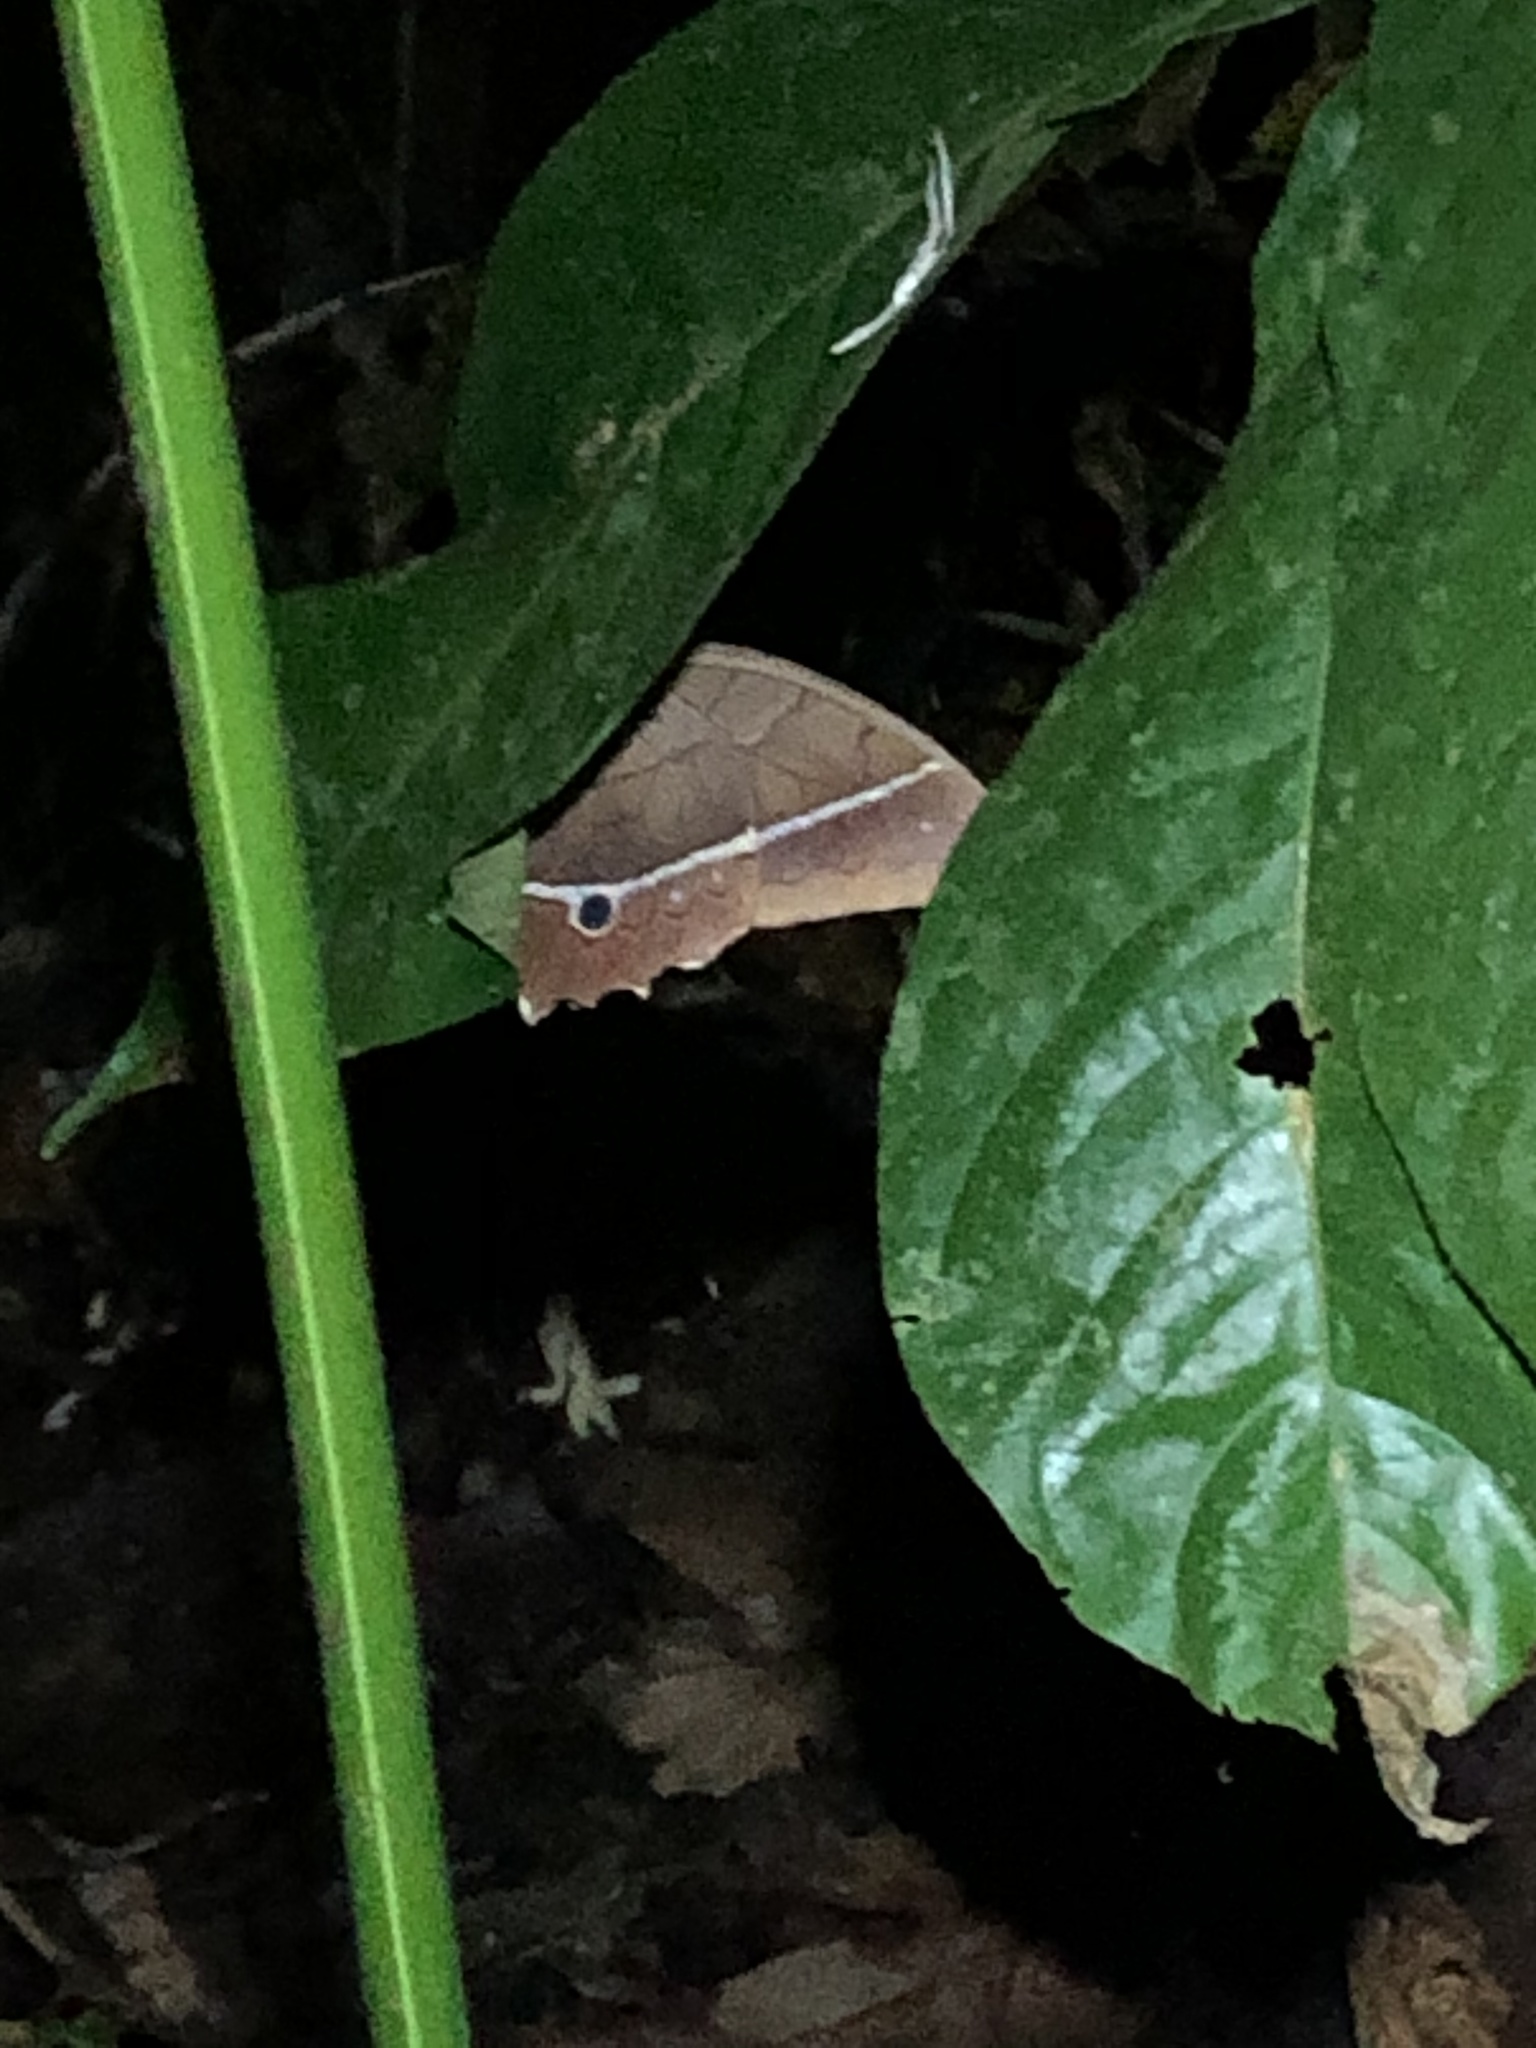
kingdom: Animalia
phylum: Arthropoda
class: Insecta
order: Lepidoptera
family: Nymphalidae
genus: Antirrhea
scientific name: Antirrhea philaretes
